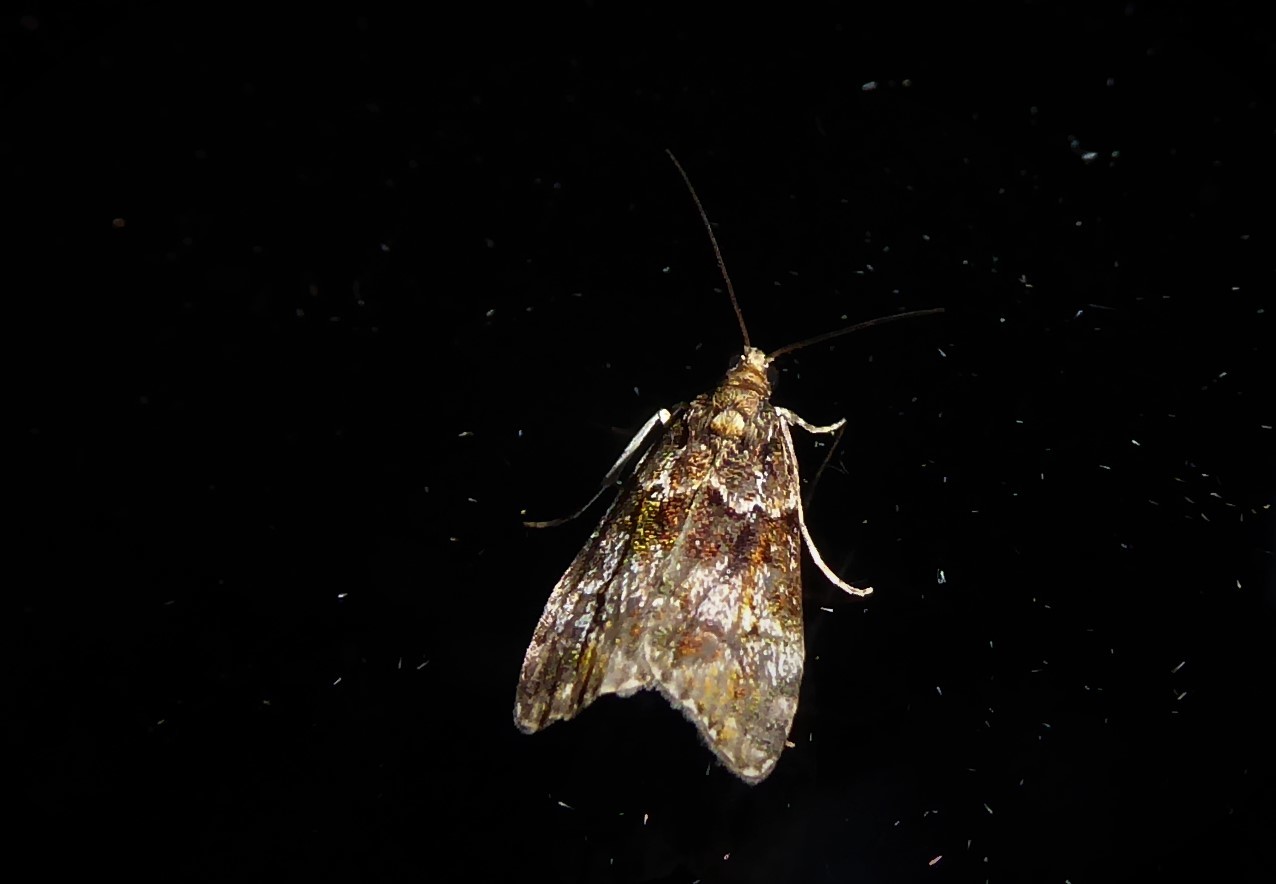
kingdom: Animalia
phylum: Arthropoda
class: Insecta
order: Lepidoptera
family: Crambidae
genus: Eudonia
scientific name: Eudonia minualis
